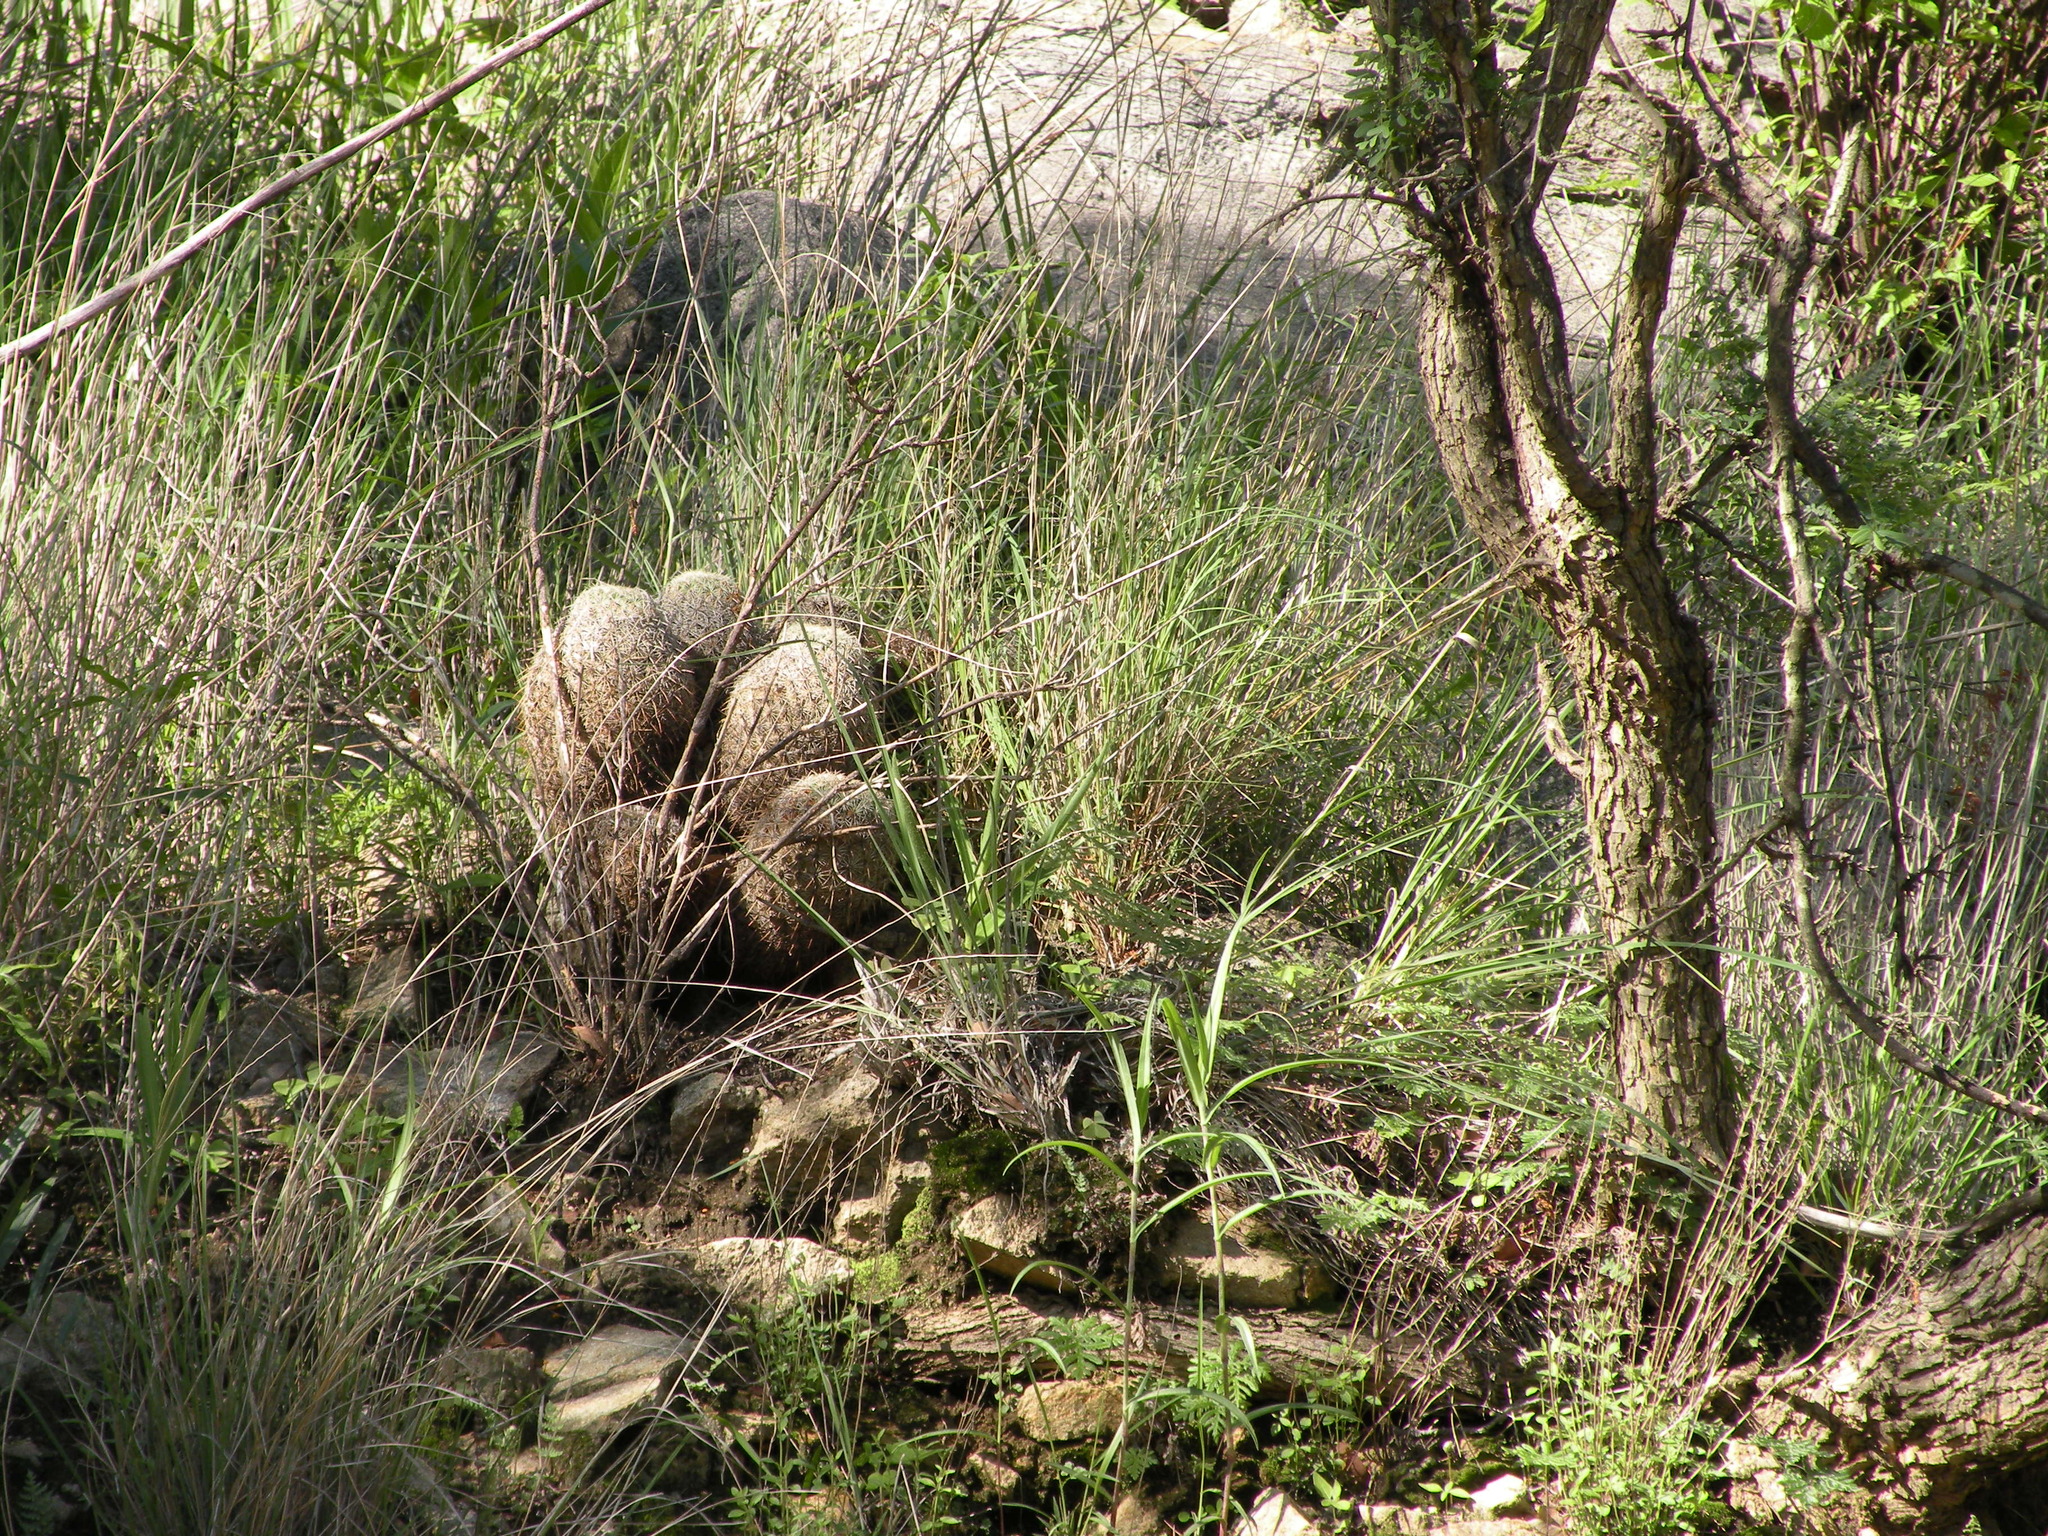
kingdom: Plantae
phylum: Tracheophyta
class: Magnoliopsida
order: Caryophyllales
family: Cactaceae
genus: Coryphantha
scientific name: Coryphantha recurvata
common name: Golden chested beehive
